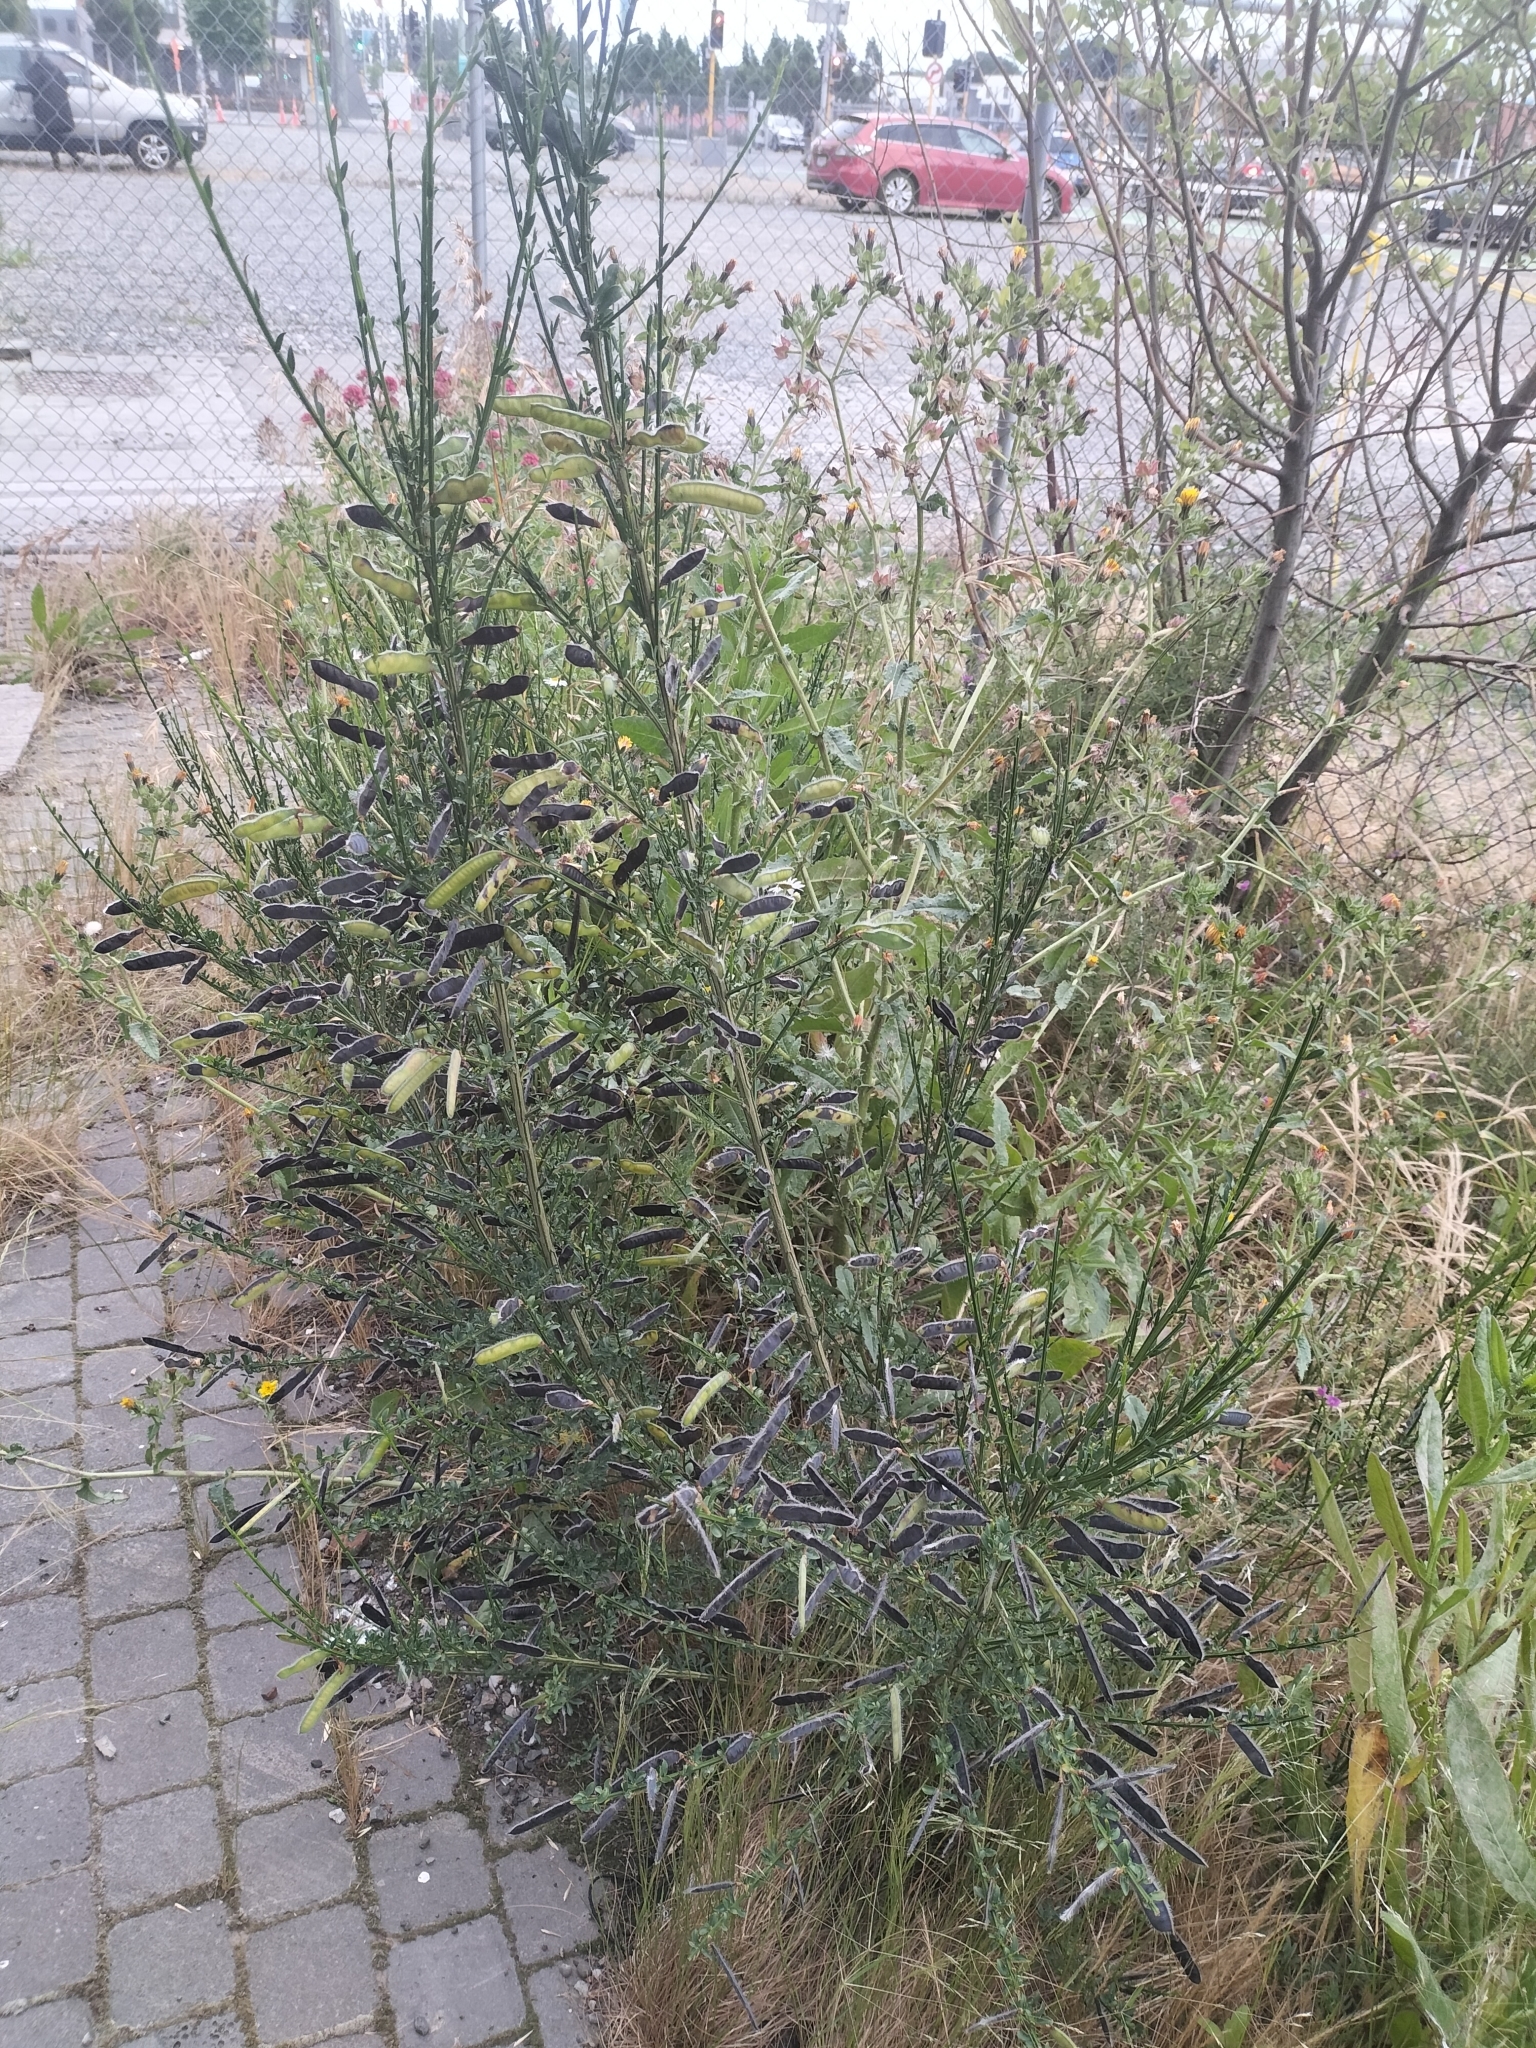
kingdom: Plantae
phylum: Tracheophyta
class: Magnoliopsida
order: Fabales
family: Fabaceae
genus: Cytisus
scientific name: Cytisus scoparius
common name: Scotch broom
